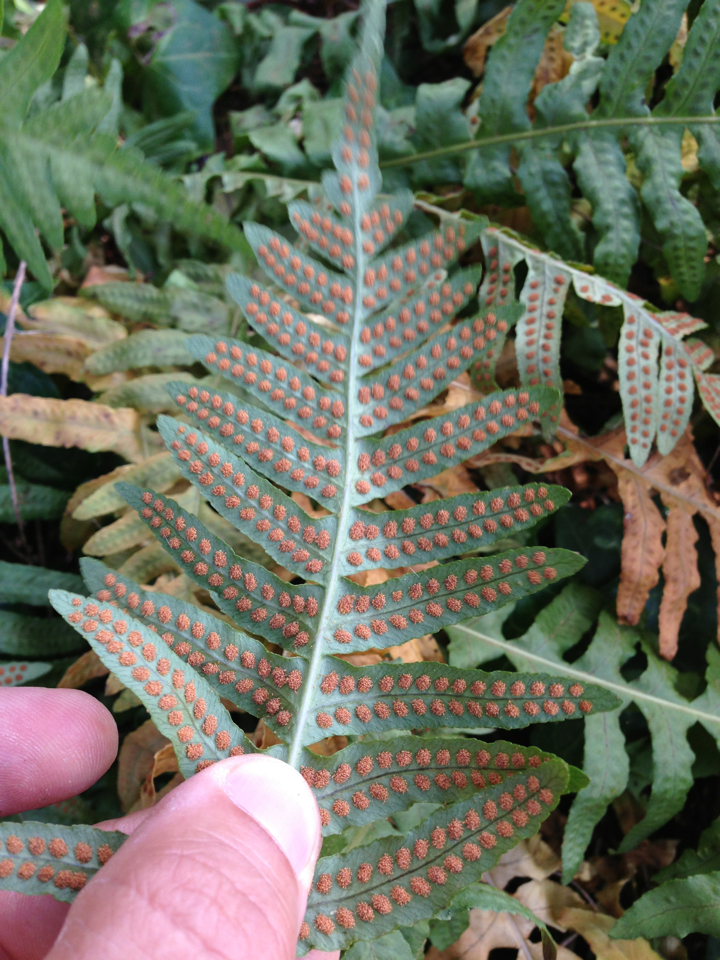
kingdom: Plantae
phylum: Tracheophyta
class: Polypodiopsida
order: Polypodiales
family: Polypodiaceae
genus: Polypodium
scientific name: Polypodium californicum
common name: California polypody
